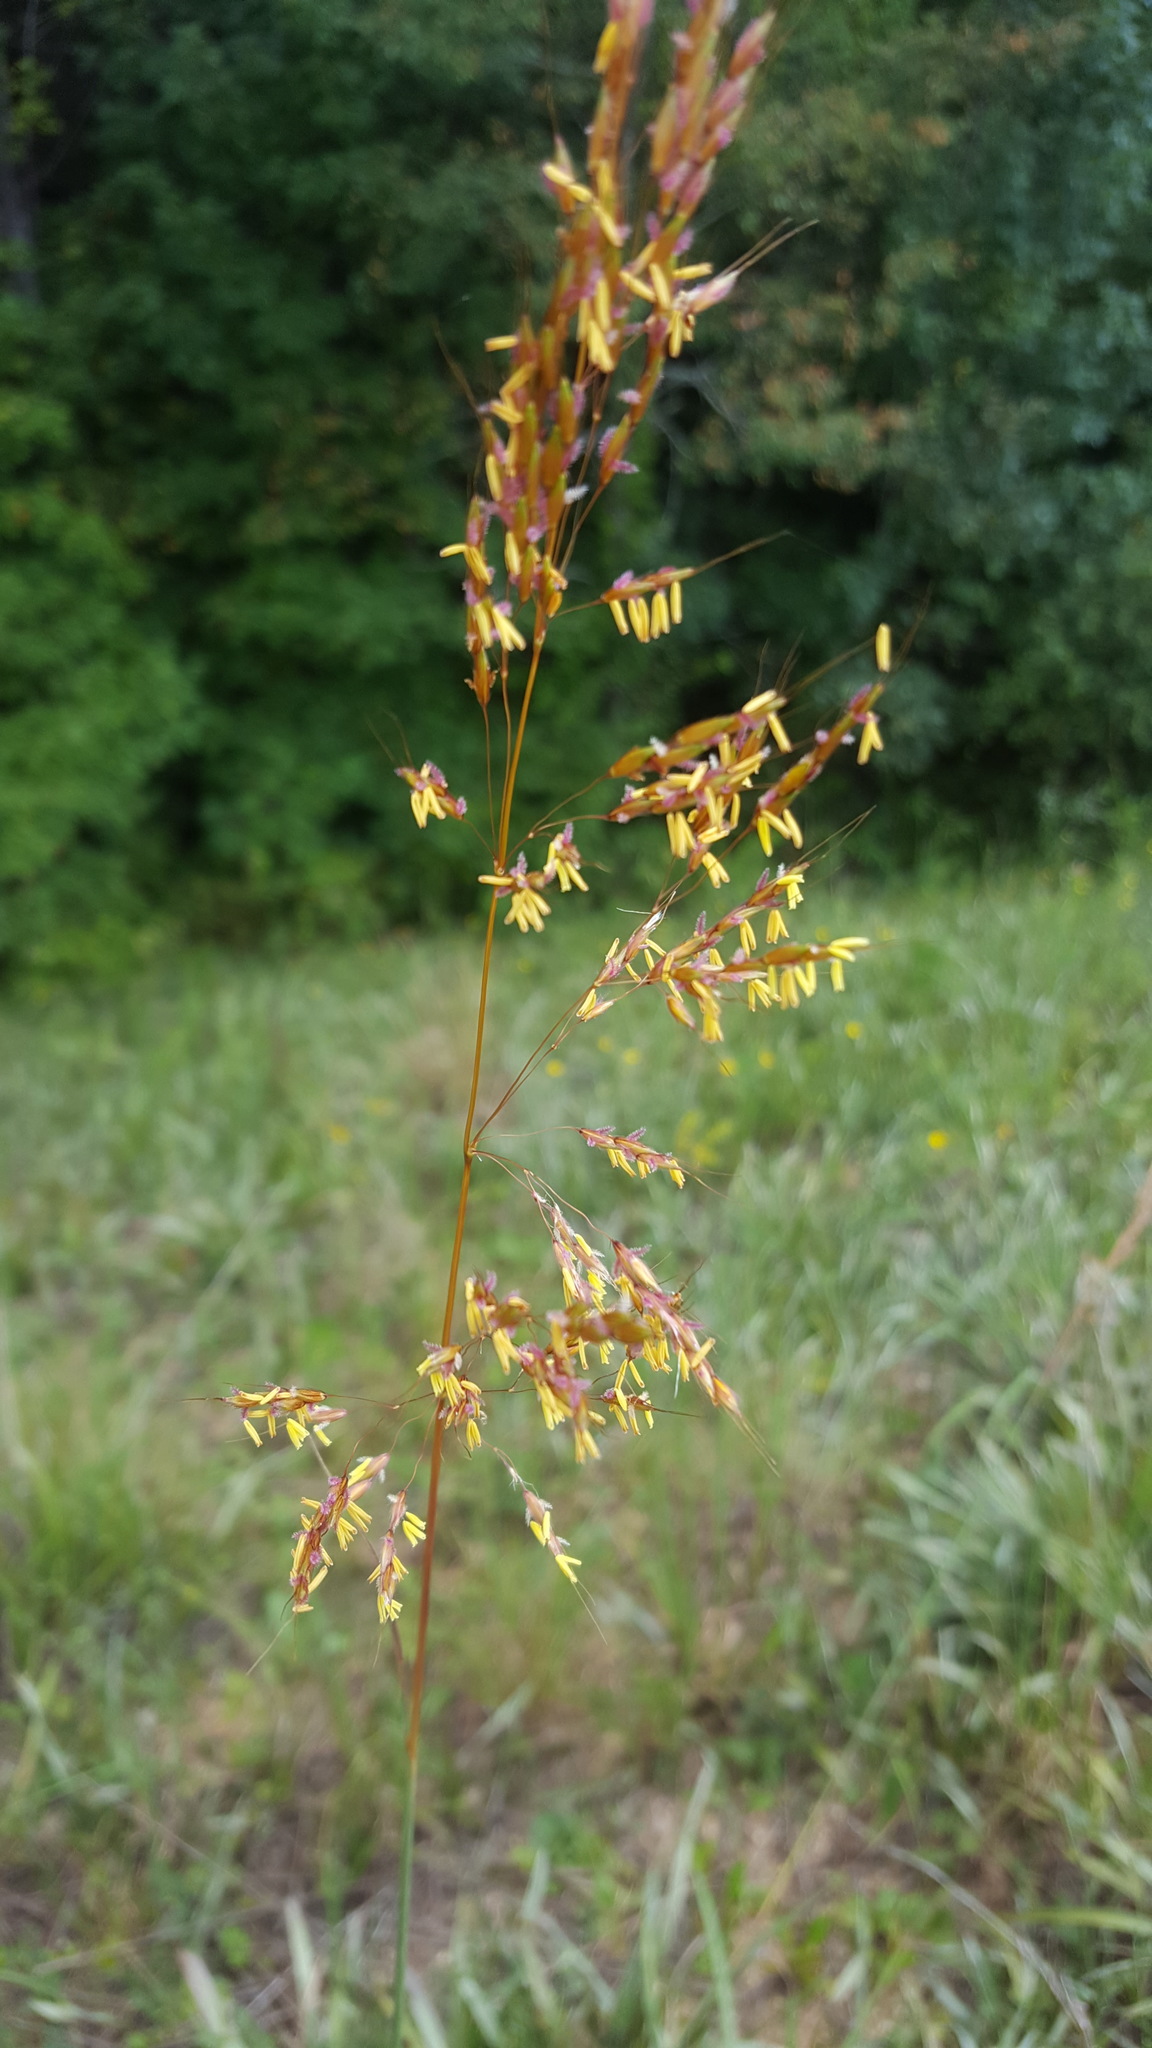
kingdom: Plantae
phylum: Tracheophyta
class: Liliopsida
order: Poales
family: Poaceae
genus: Sorghastrum
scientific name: Sorghastrum nutans
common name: Indian grass
